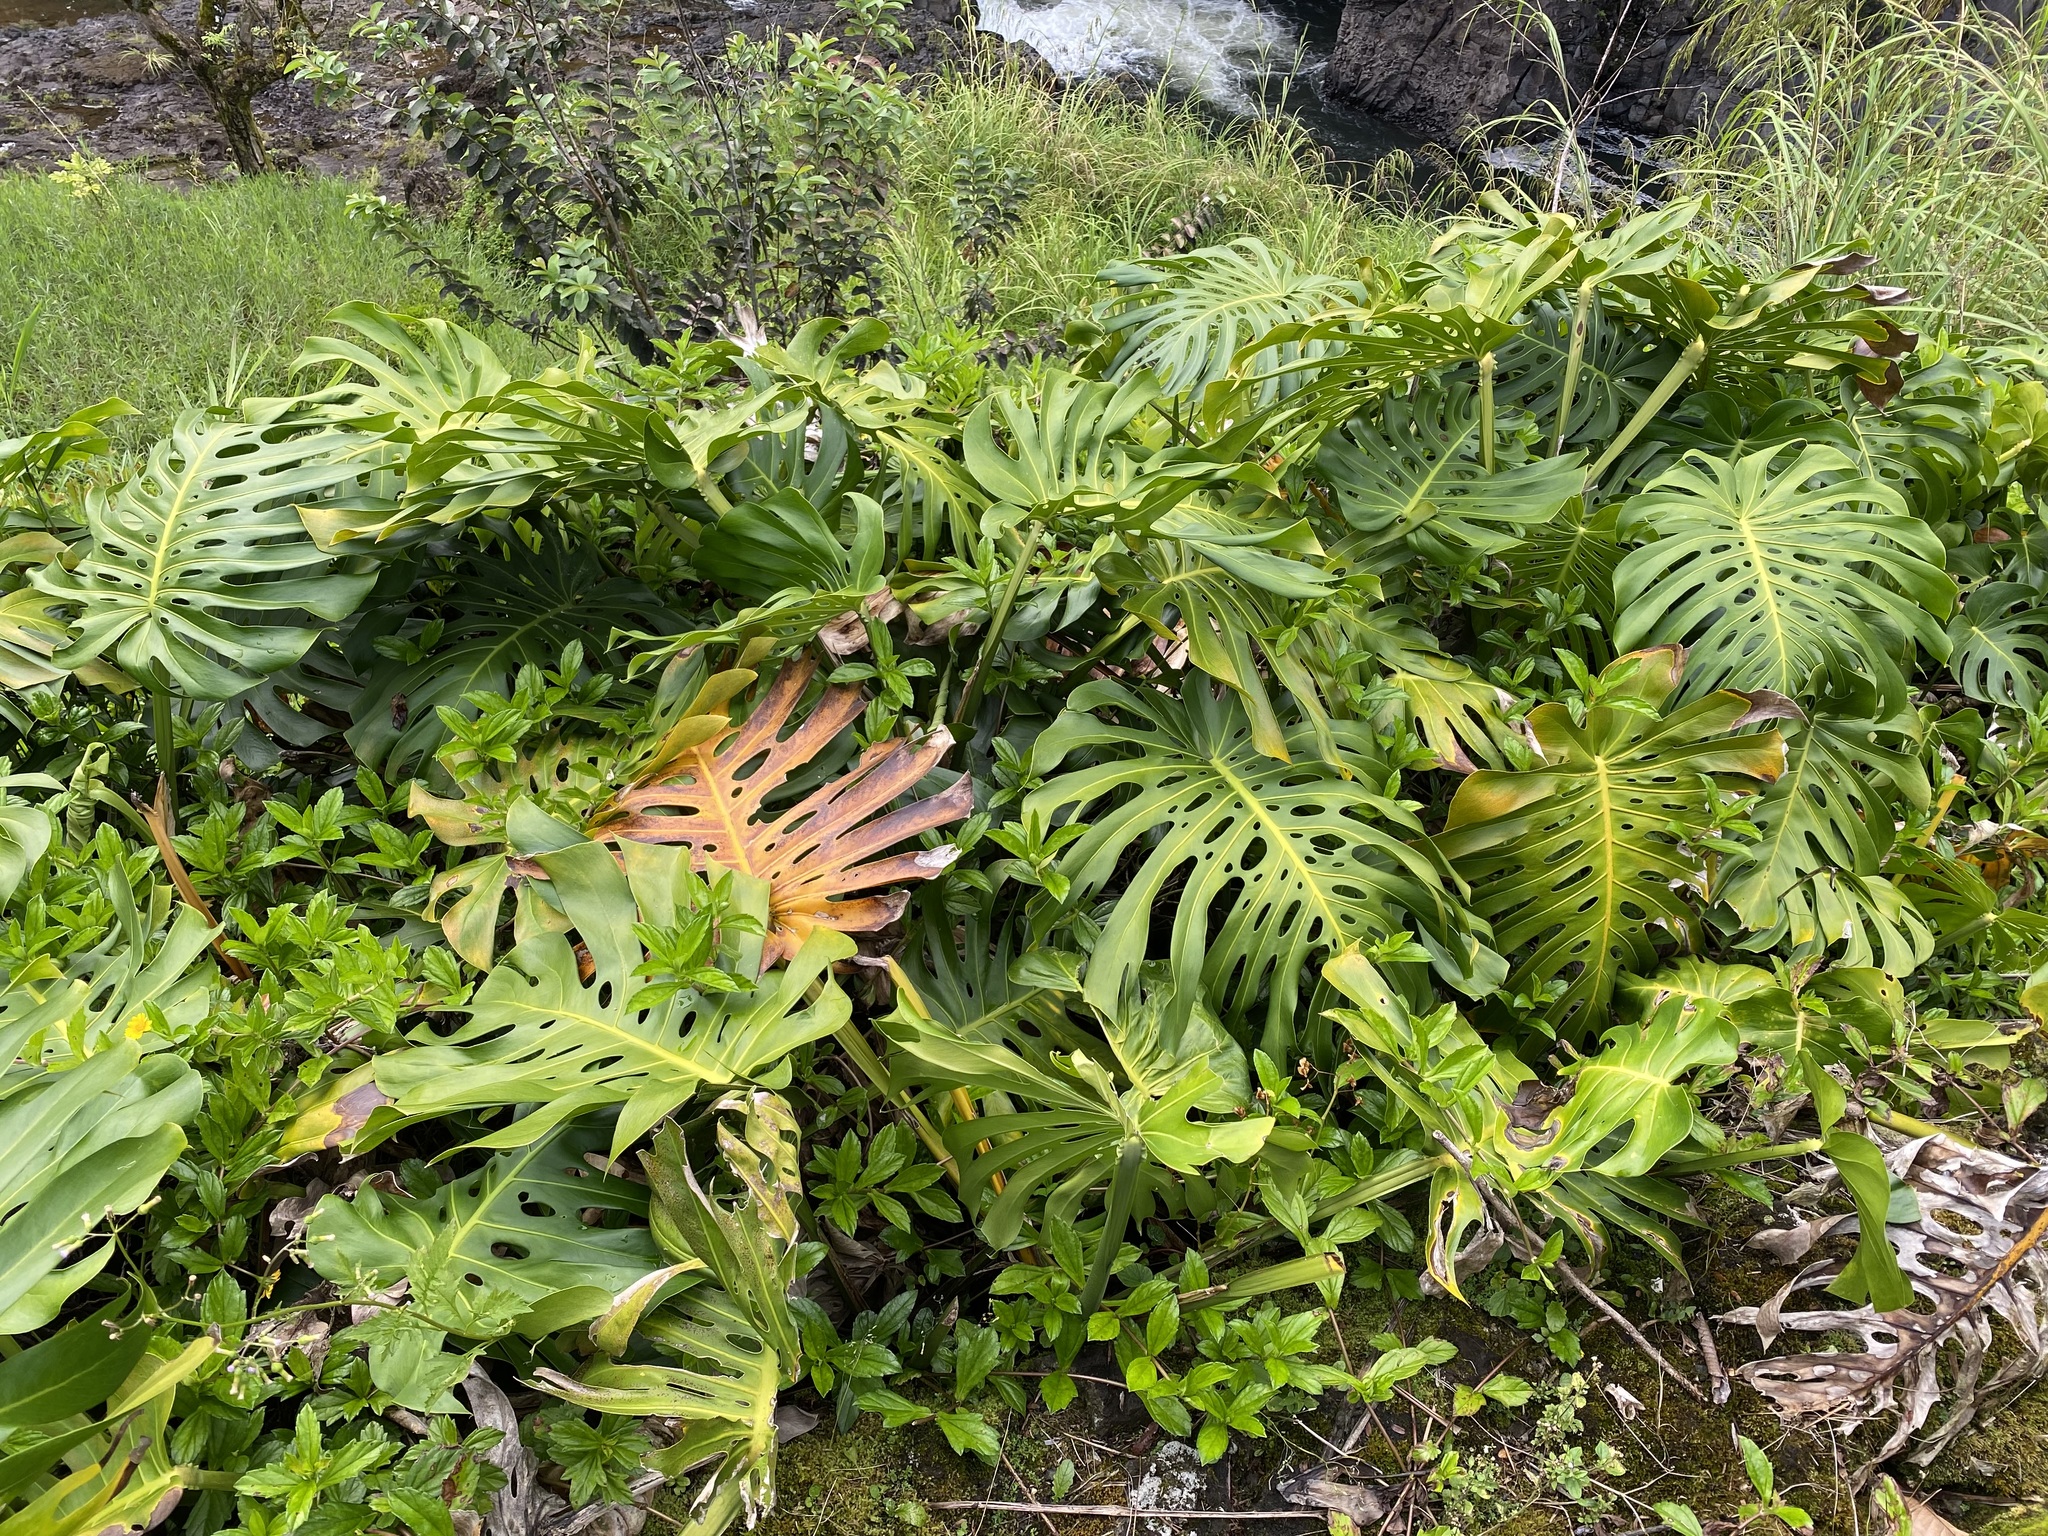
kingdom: Plantae
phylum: Tracheophyta
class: Liliopsida
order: Alismatales
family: Araceae
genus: Monstera
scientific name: Monstera deliciosa
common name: Cut-leaf-philodendron
